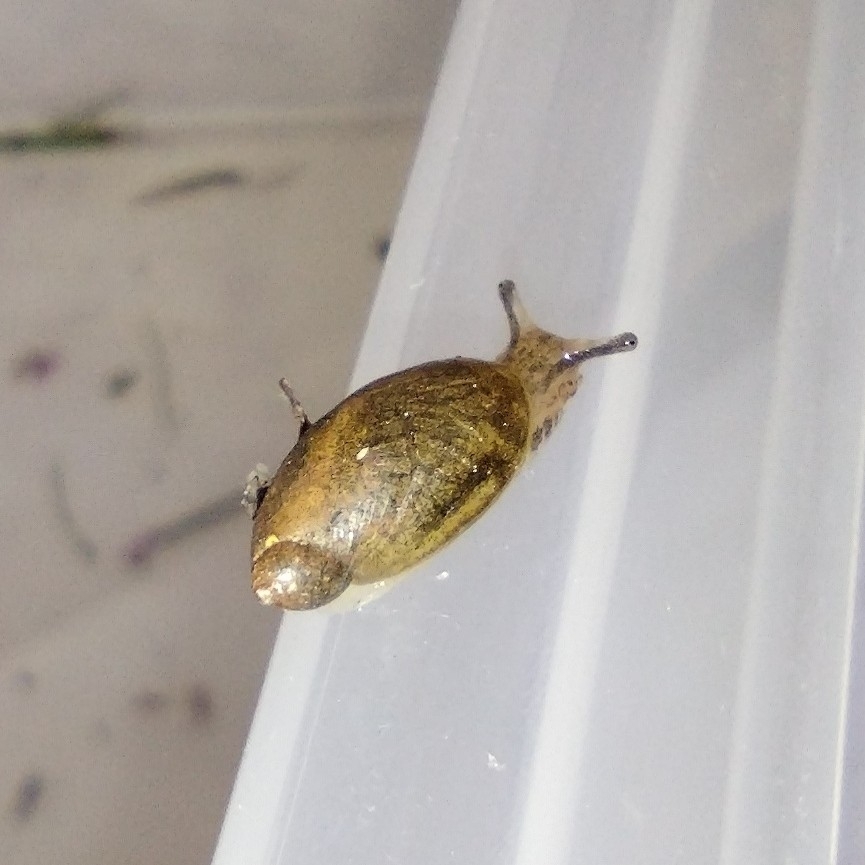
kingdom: Animalia
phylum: Mollusca
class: Gastropoda
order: Stylommatophora
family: Succineidae
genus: Succinea
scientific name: Succinea putris
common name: European ambersnail
